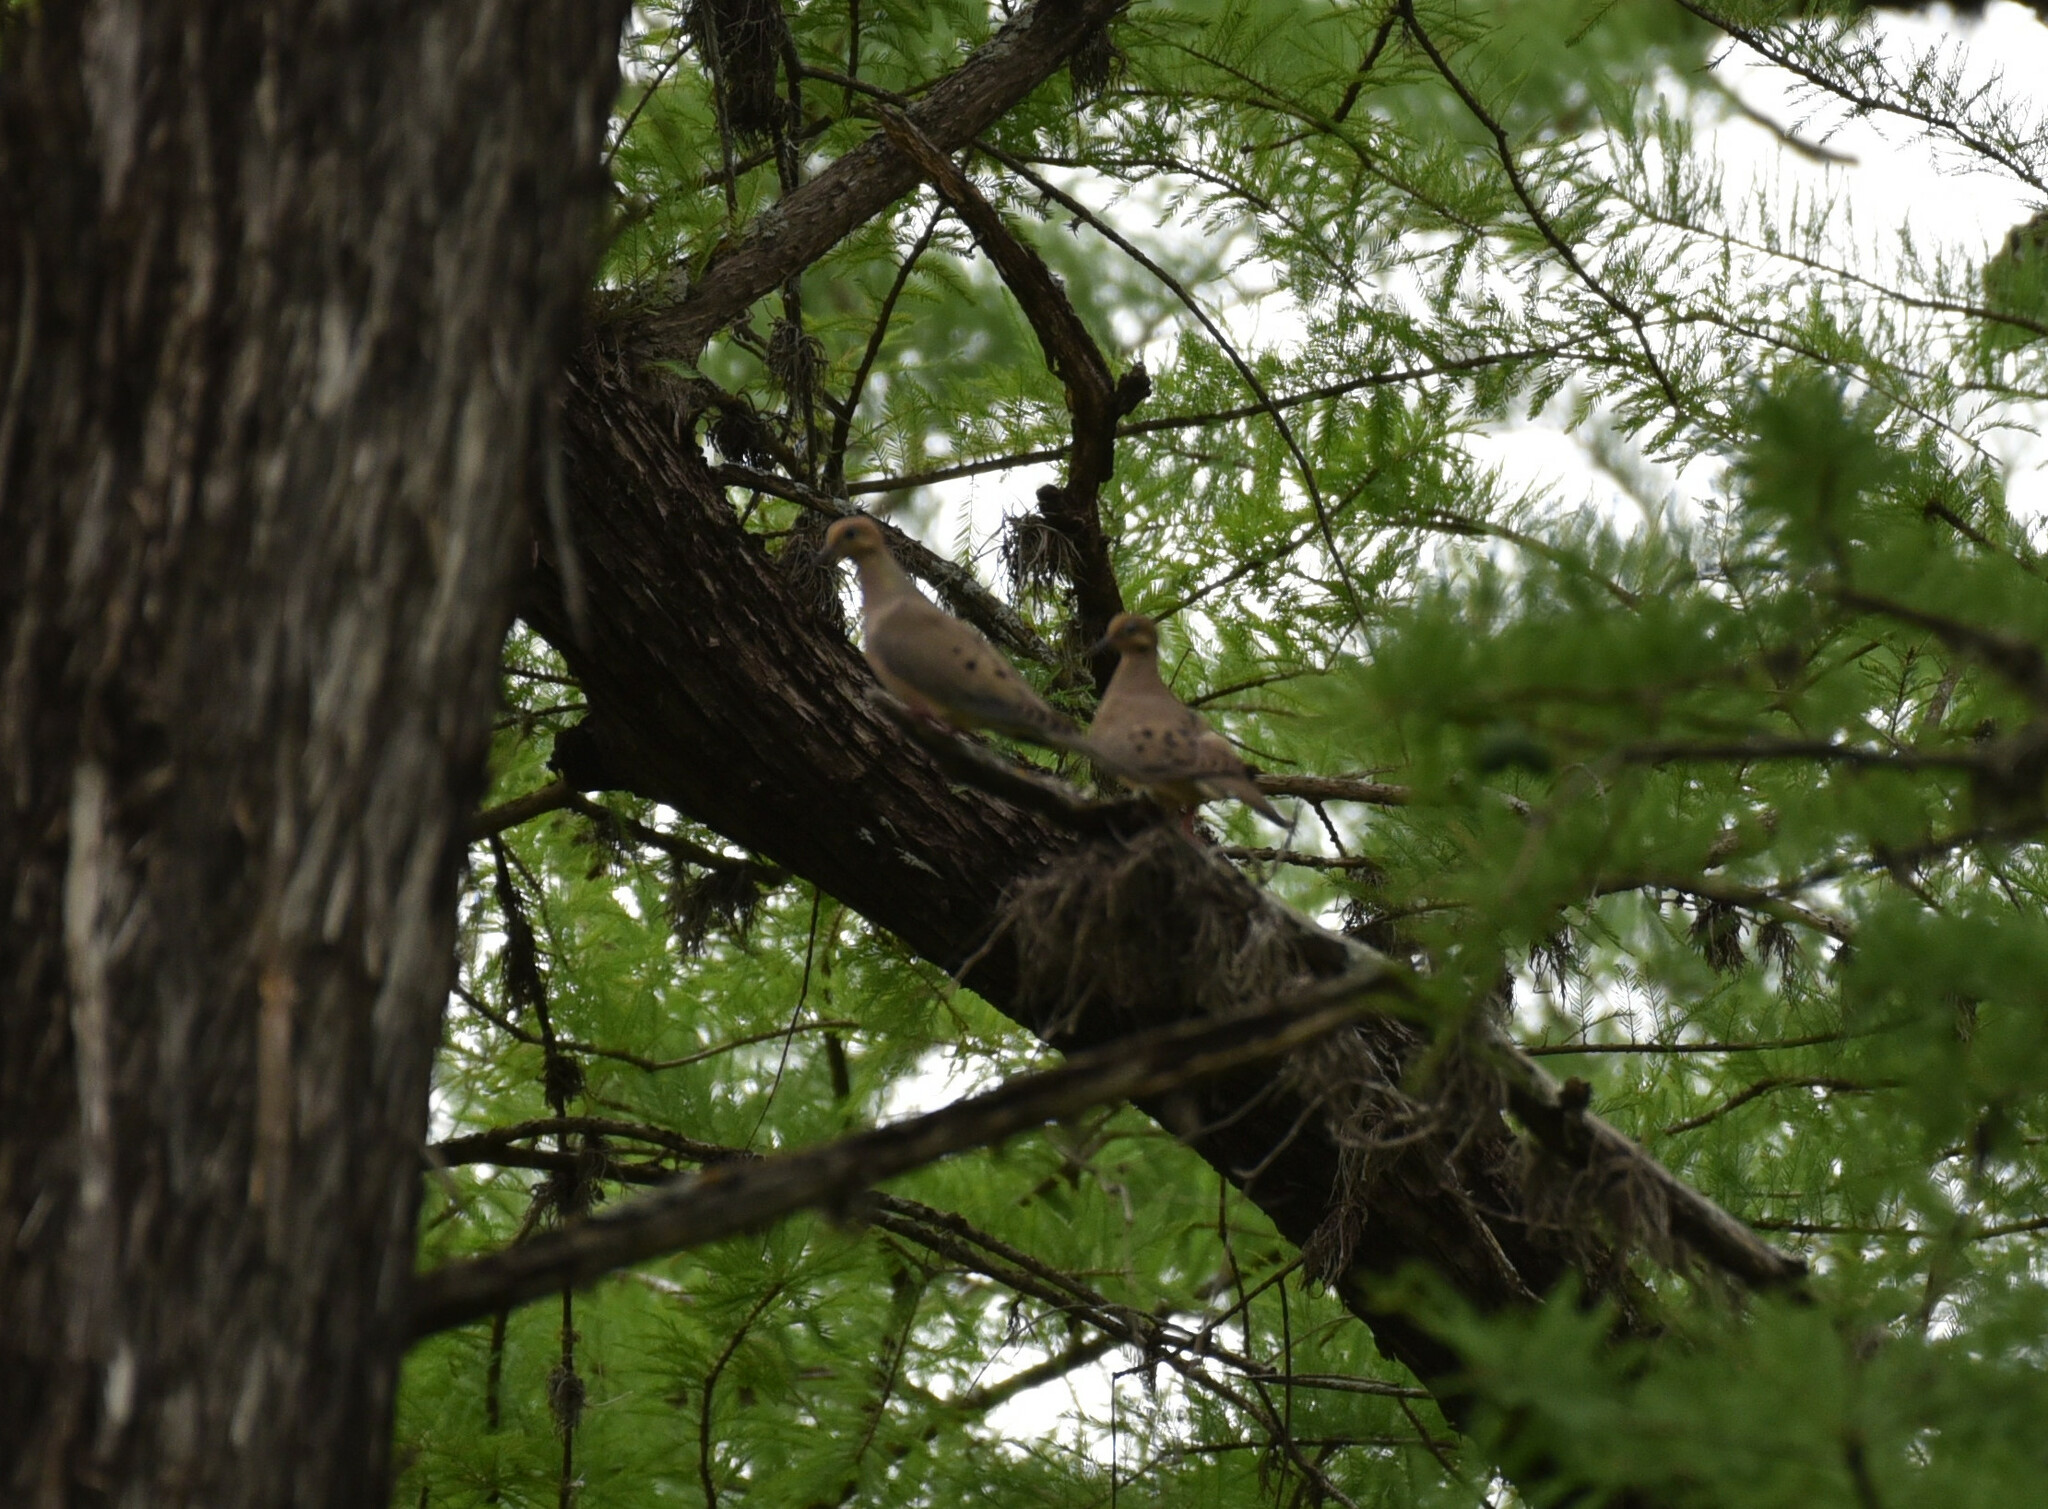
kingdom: Animalia
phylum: Chordata
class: Aves
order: Columbiformes
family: Columbidae
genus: Zenaida
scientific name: Zenaida macroura
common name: Mourning dove
